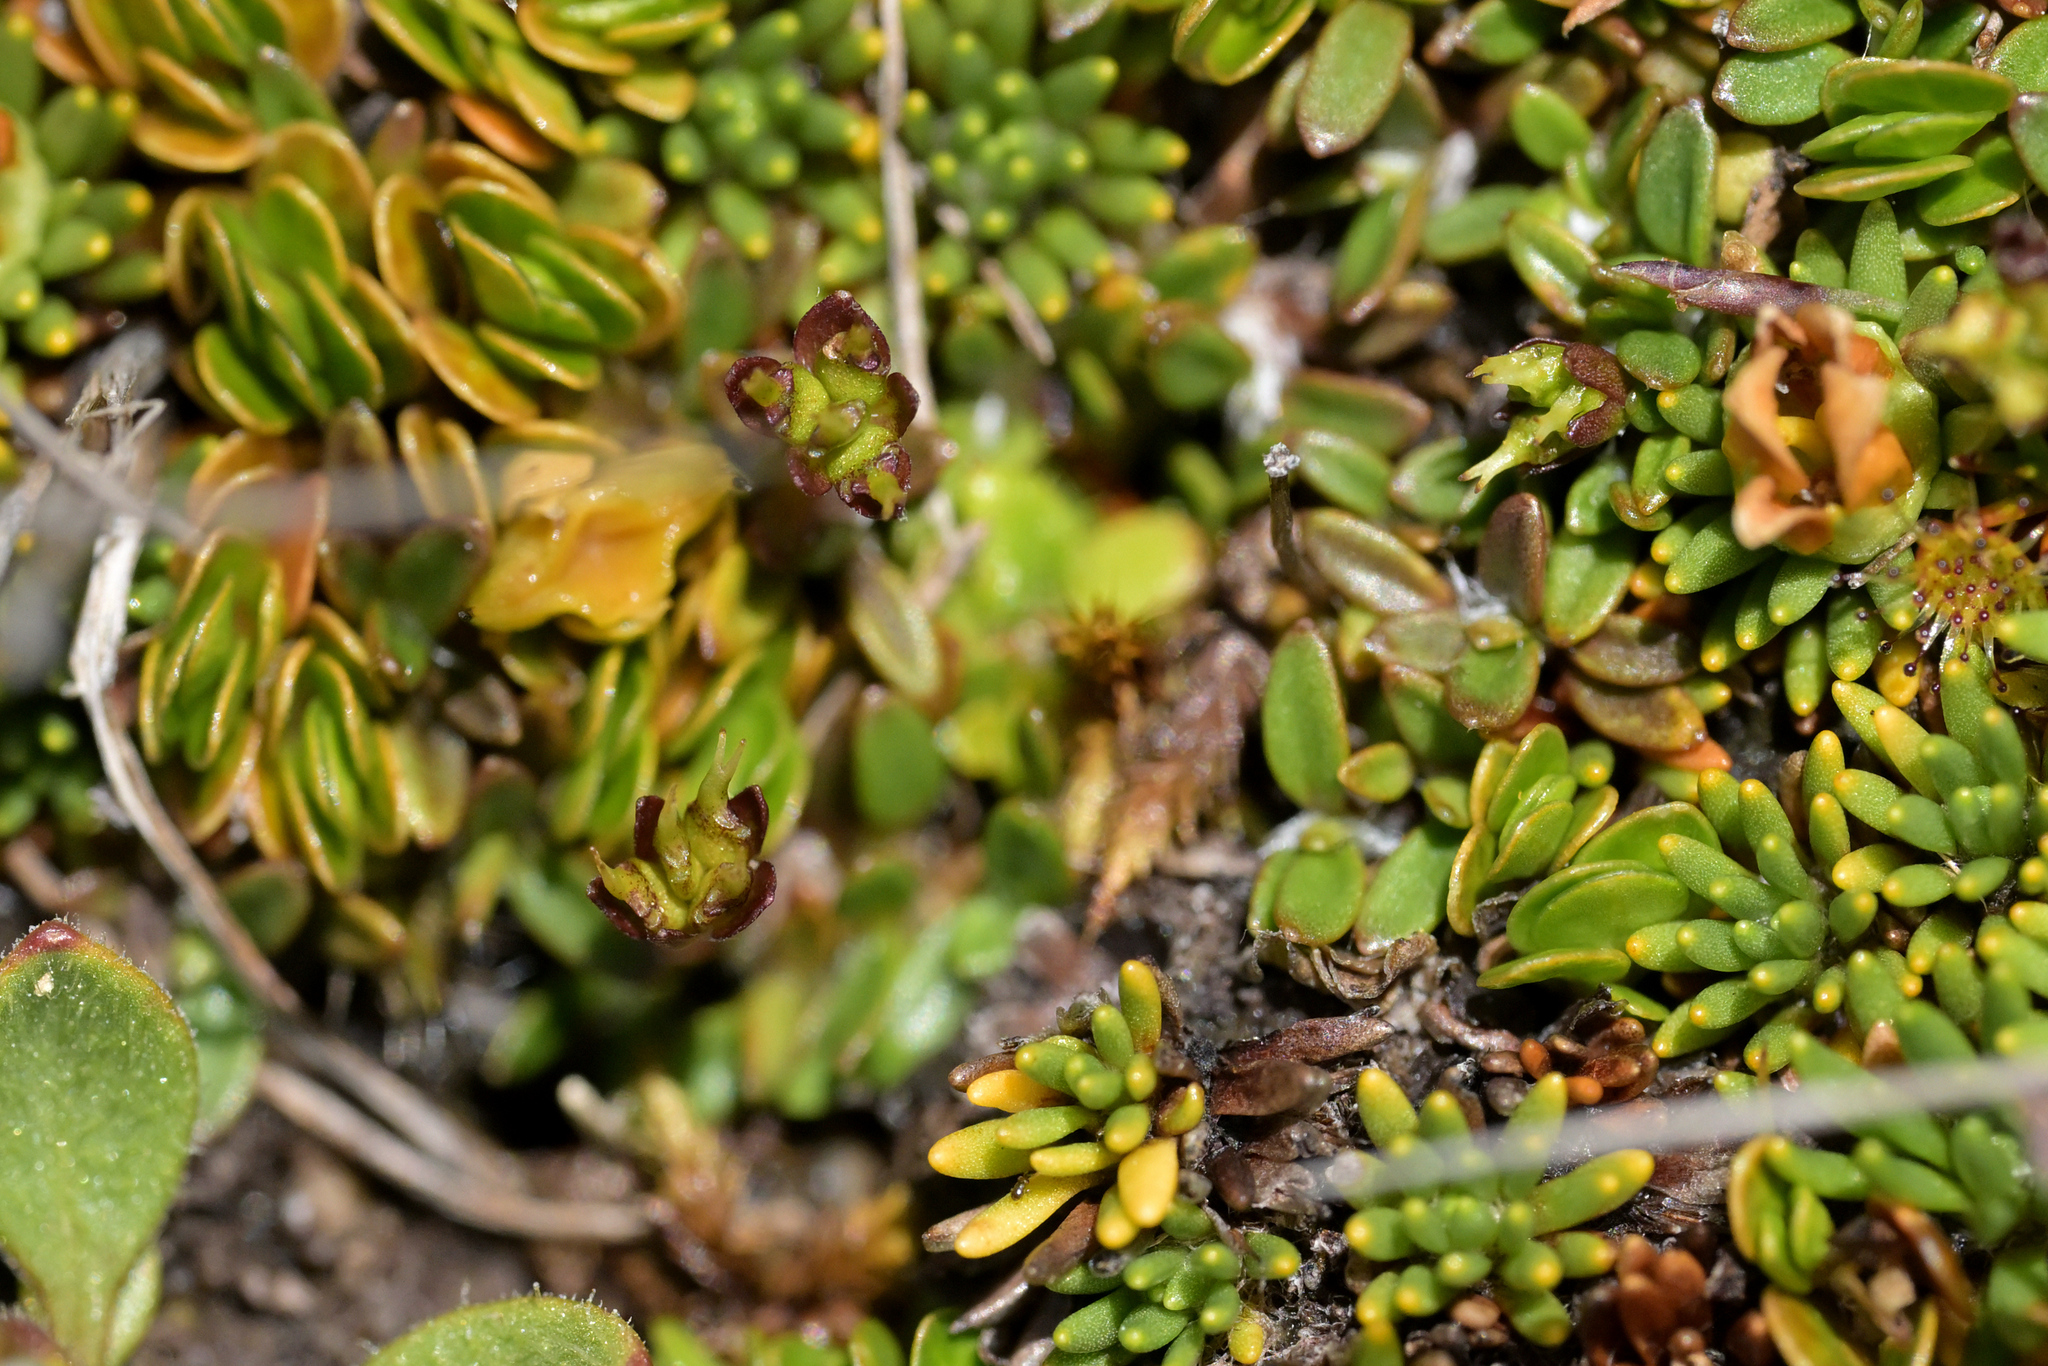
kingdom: Plantae
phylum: Tracheophyta
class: Magnoliopsida
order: Apiales
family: Apiaceae
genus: Actinotus
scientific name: Actinotus novae-zealandiae
